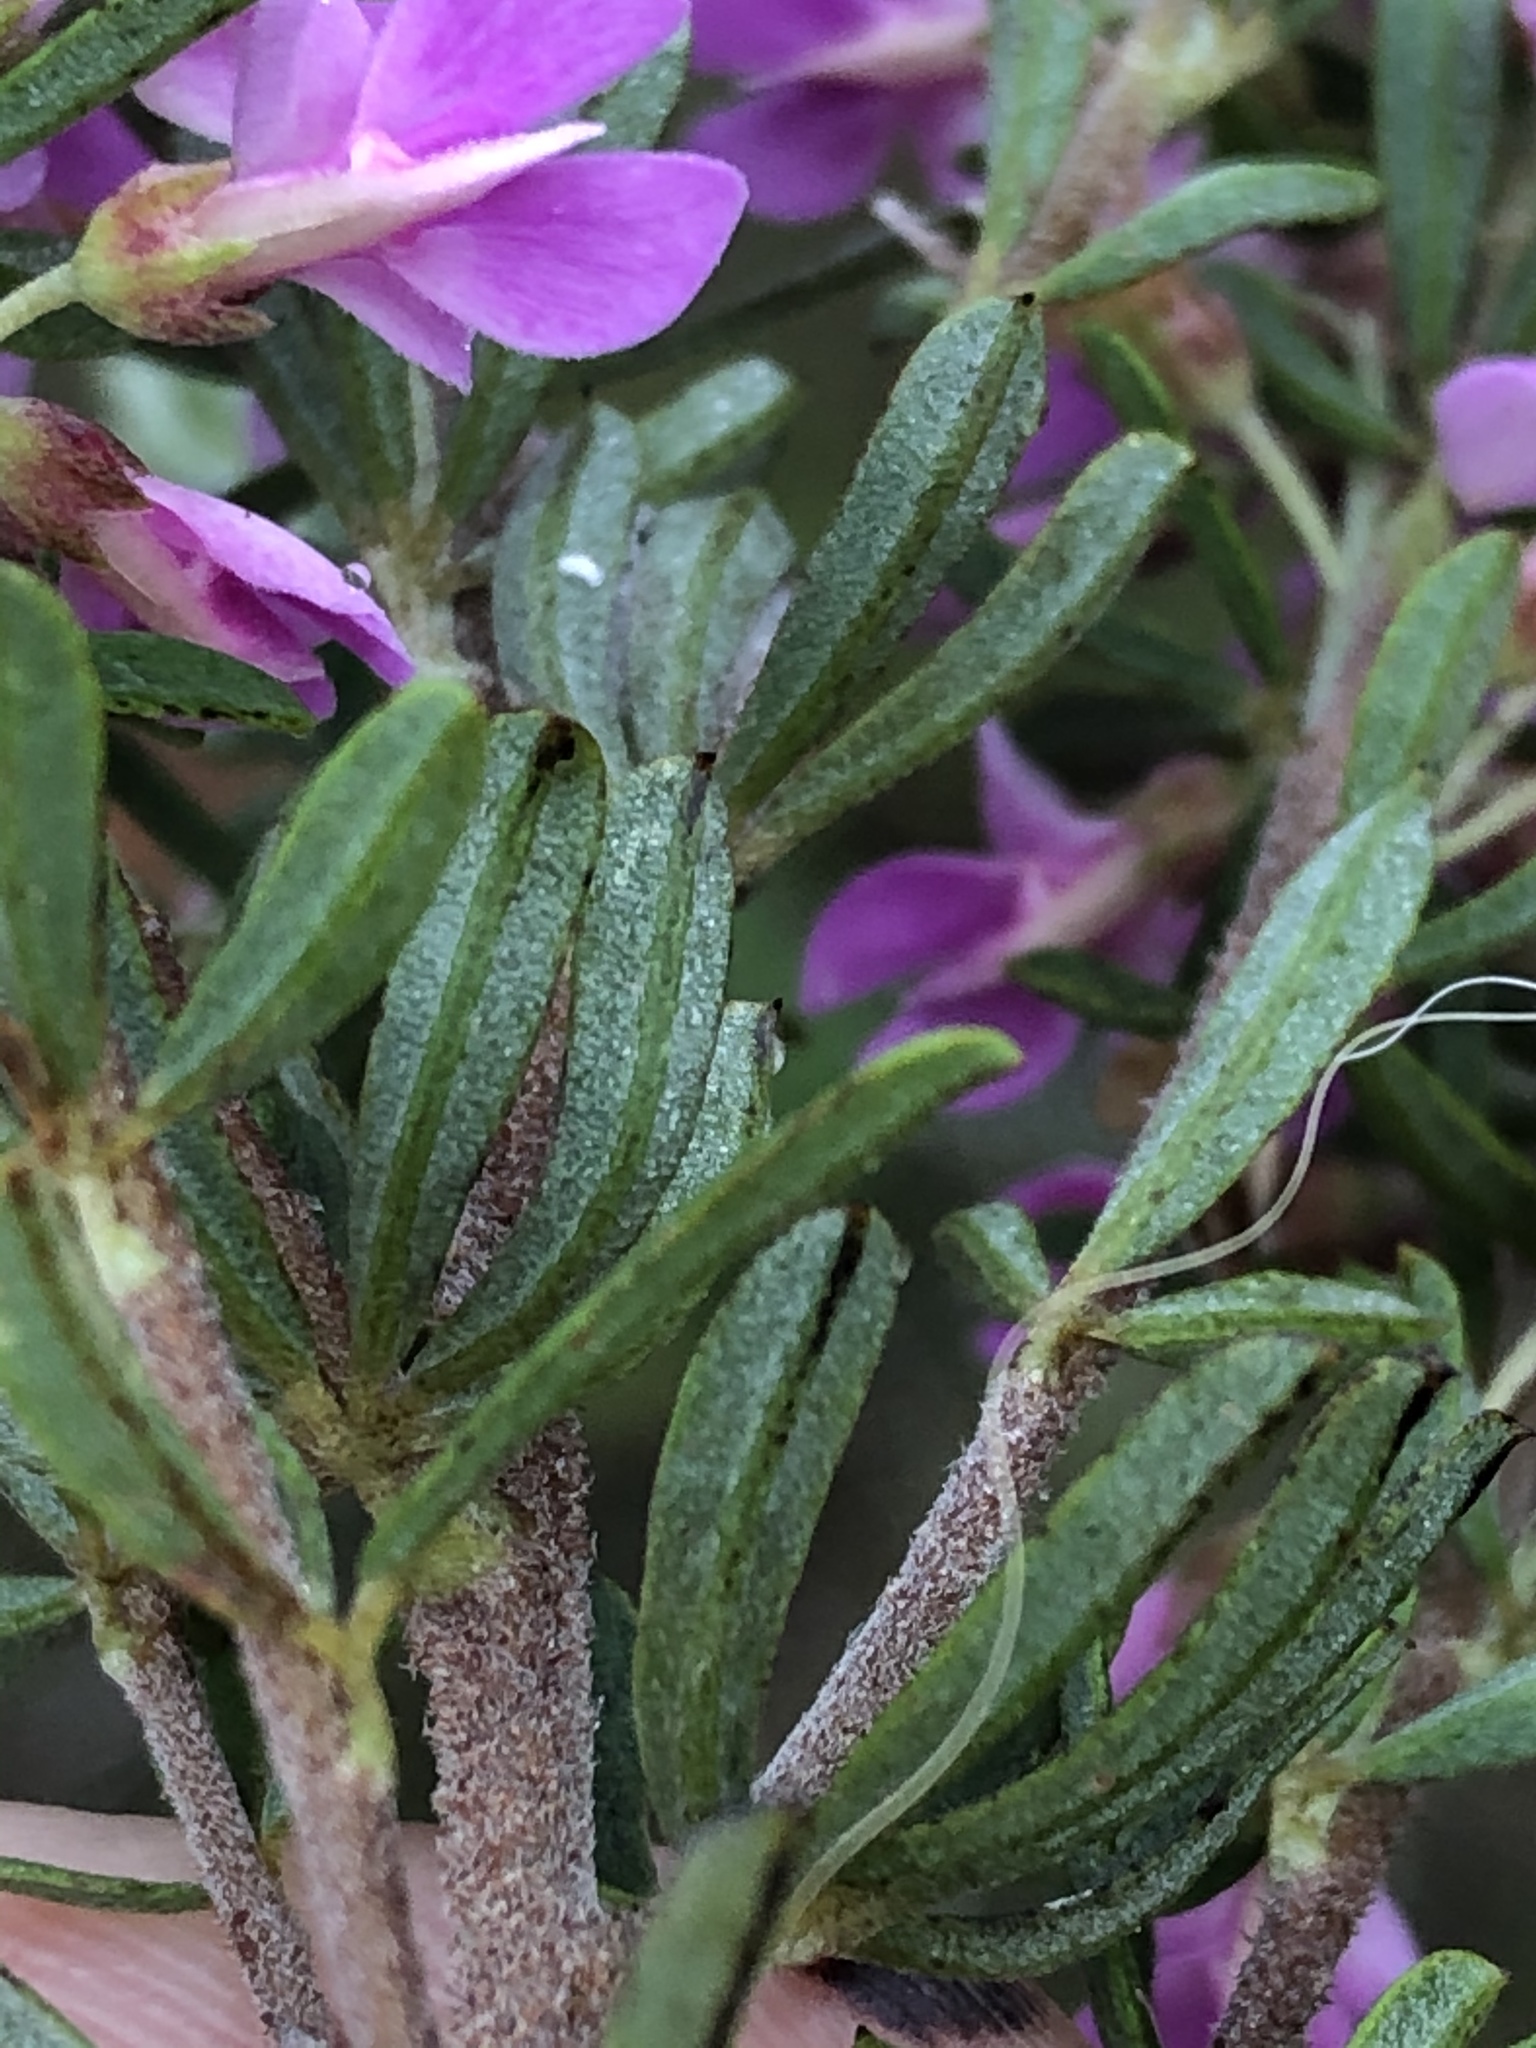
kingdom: Plantae
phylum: Tracheophyta
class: Magnoliopsida
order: Fabales
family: Fabaceae
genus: Indigofera
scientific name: Indigofera flabellata
